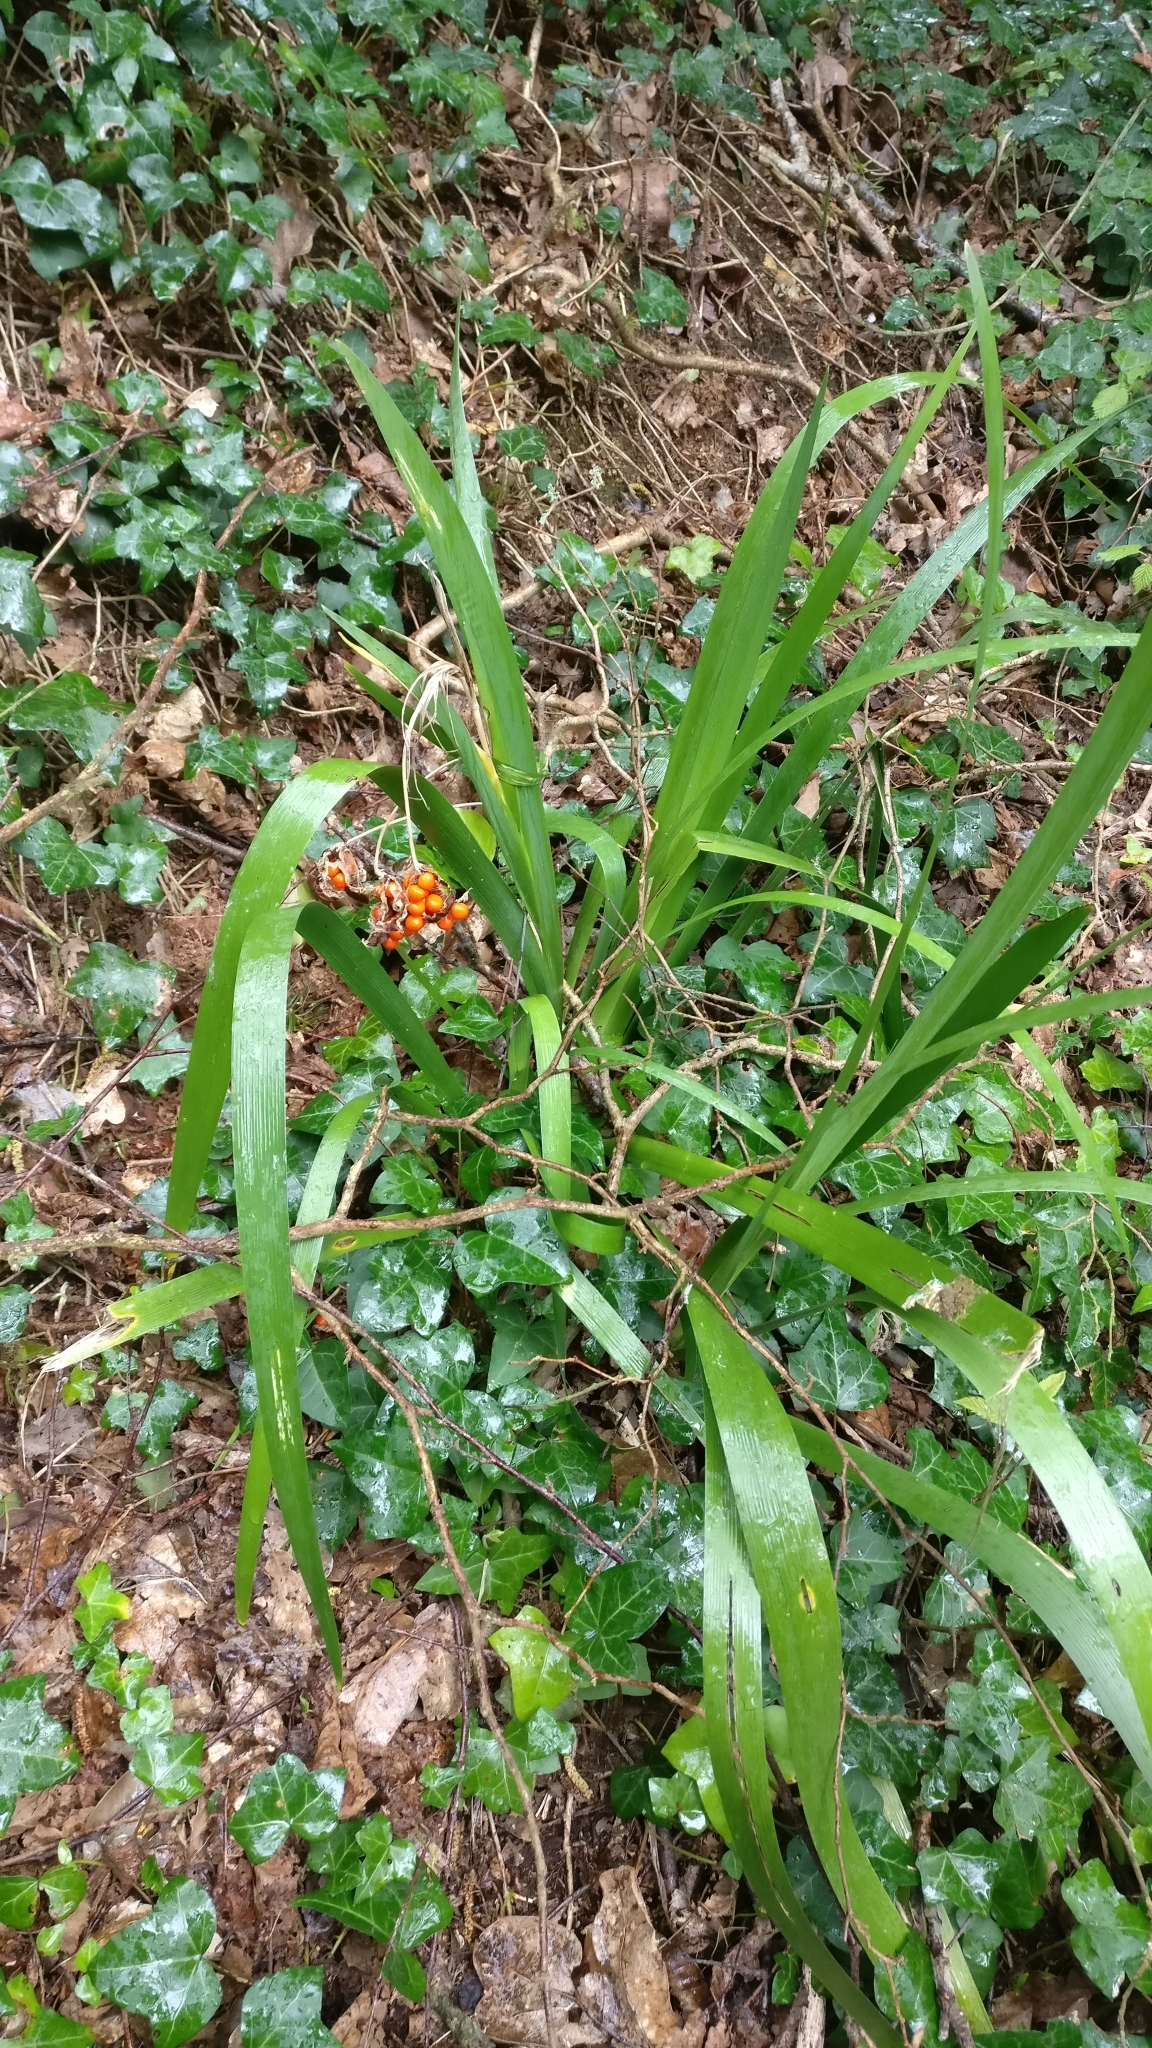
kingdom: Plantae
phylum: Tracheophyta
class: Liliopsida
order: Asparagales
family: Iridaceae
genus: Iris
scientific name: Iris foetidissima
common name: Stinking iris
